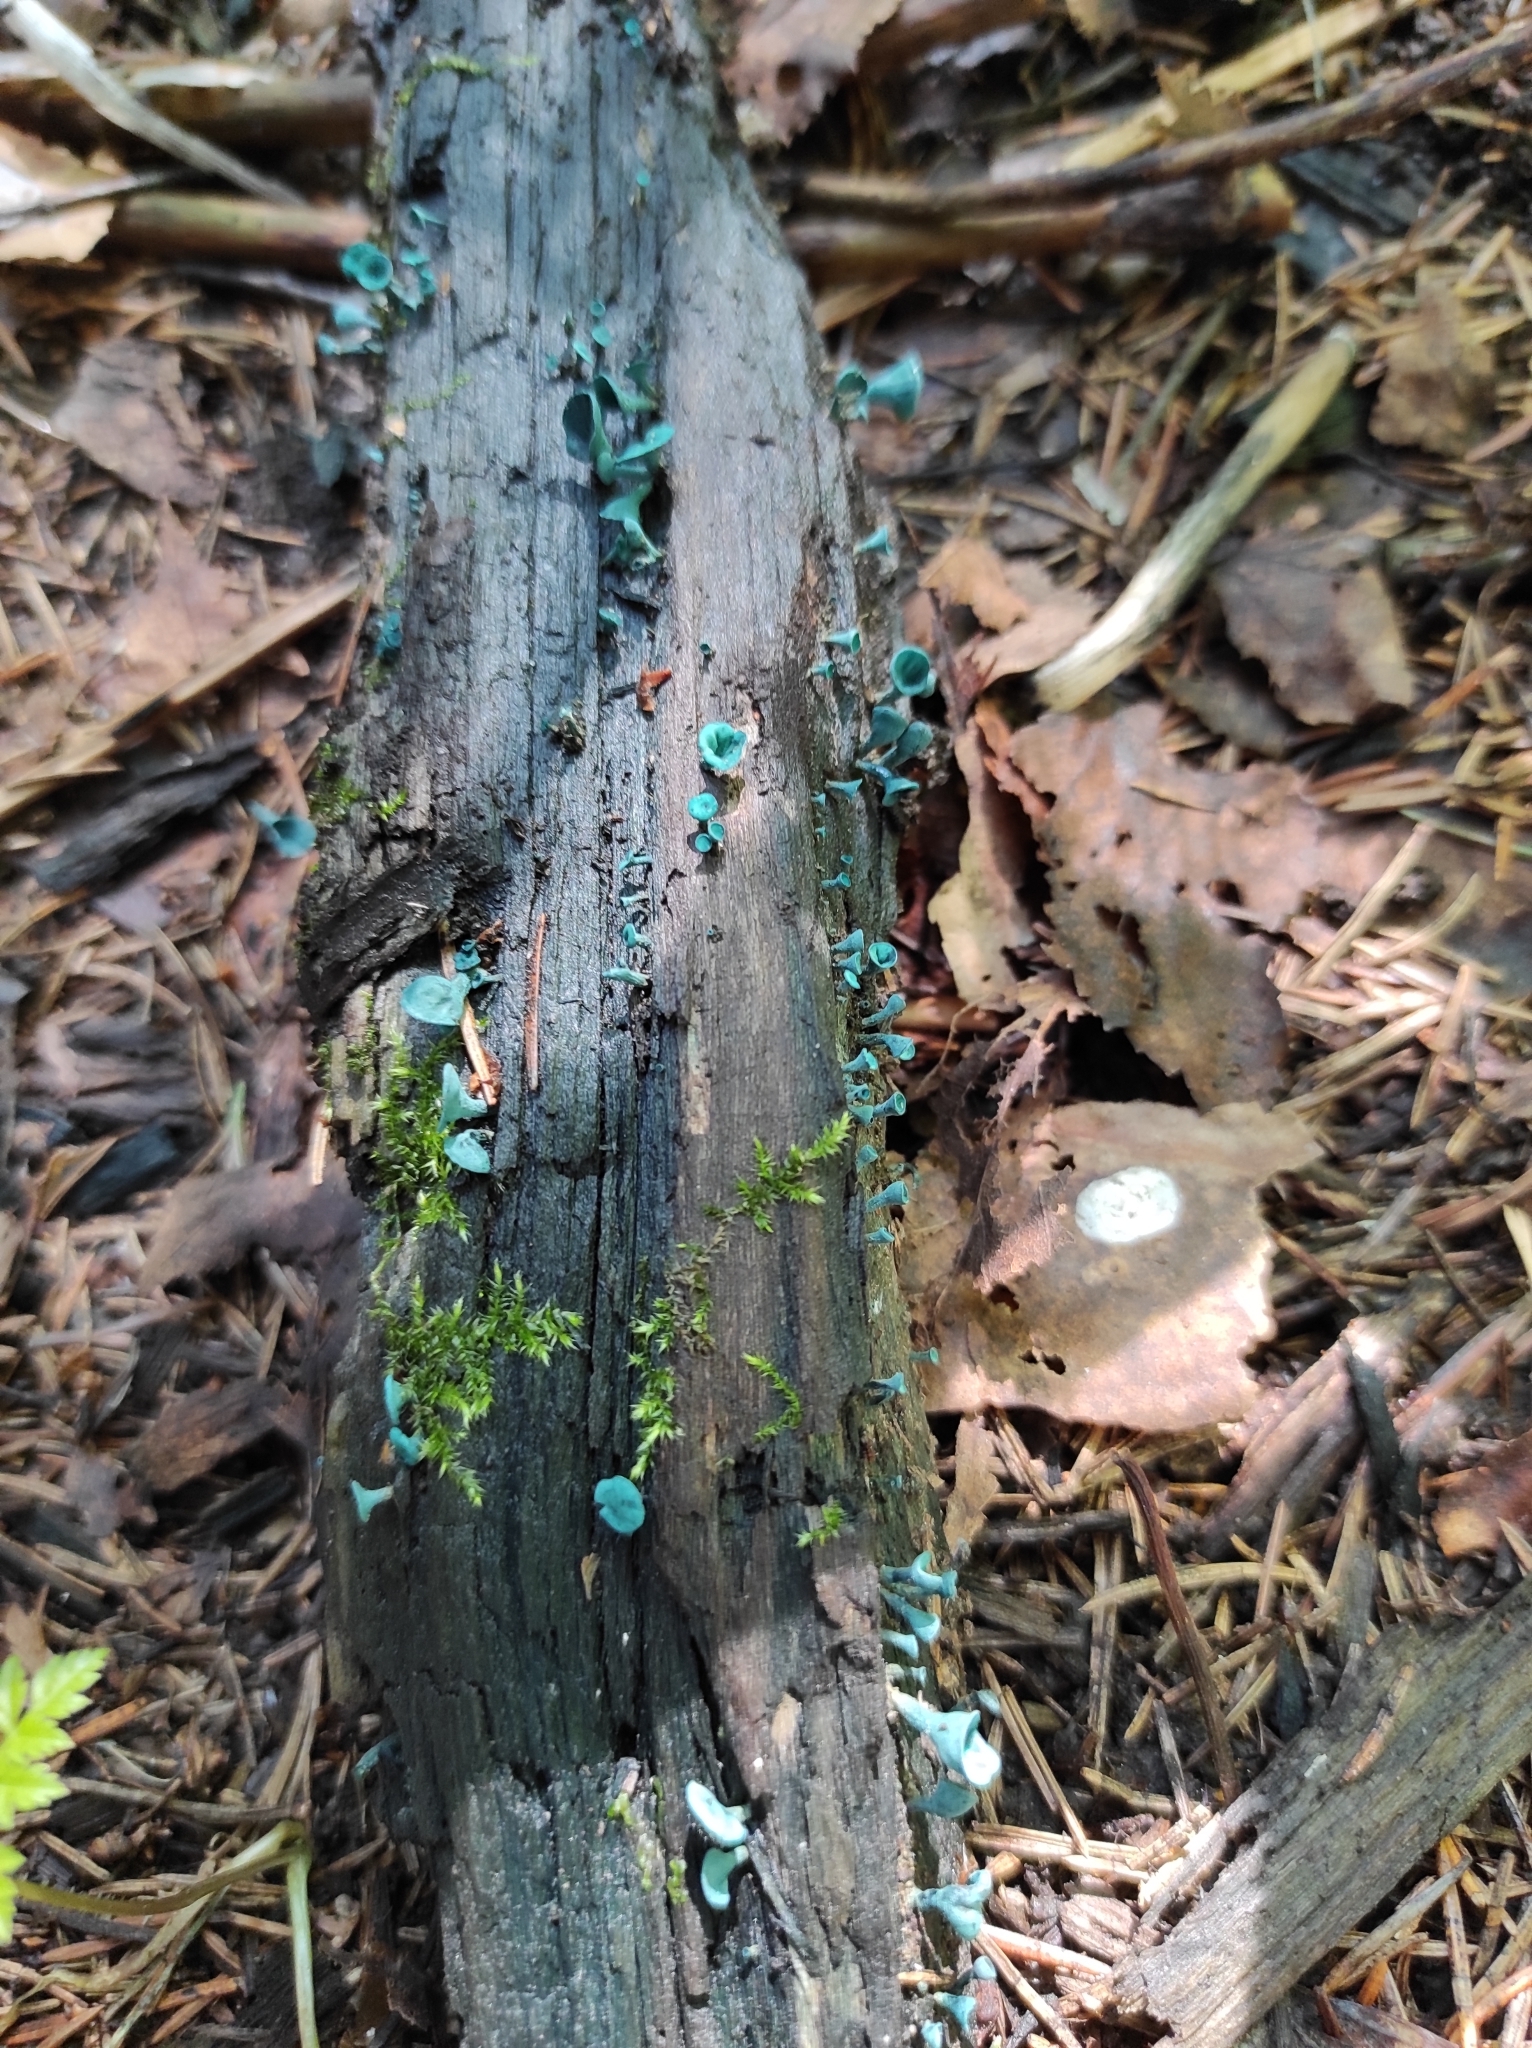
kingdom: Fungi
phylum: Ascomycota
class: Leotiomycetes
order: Helotiales
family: Chlorociboriaceae
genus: Chlorociboria
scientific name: Chlorociboria aeruginascens
